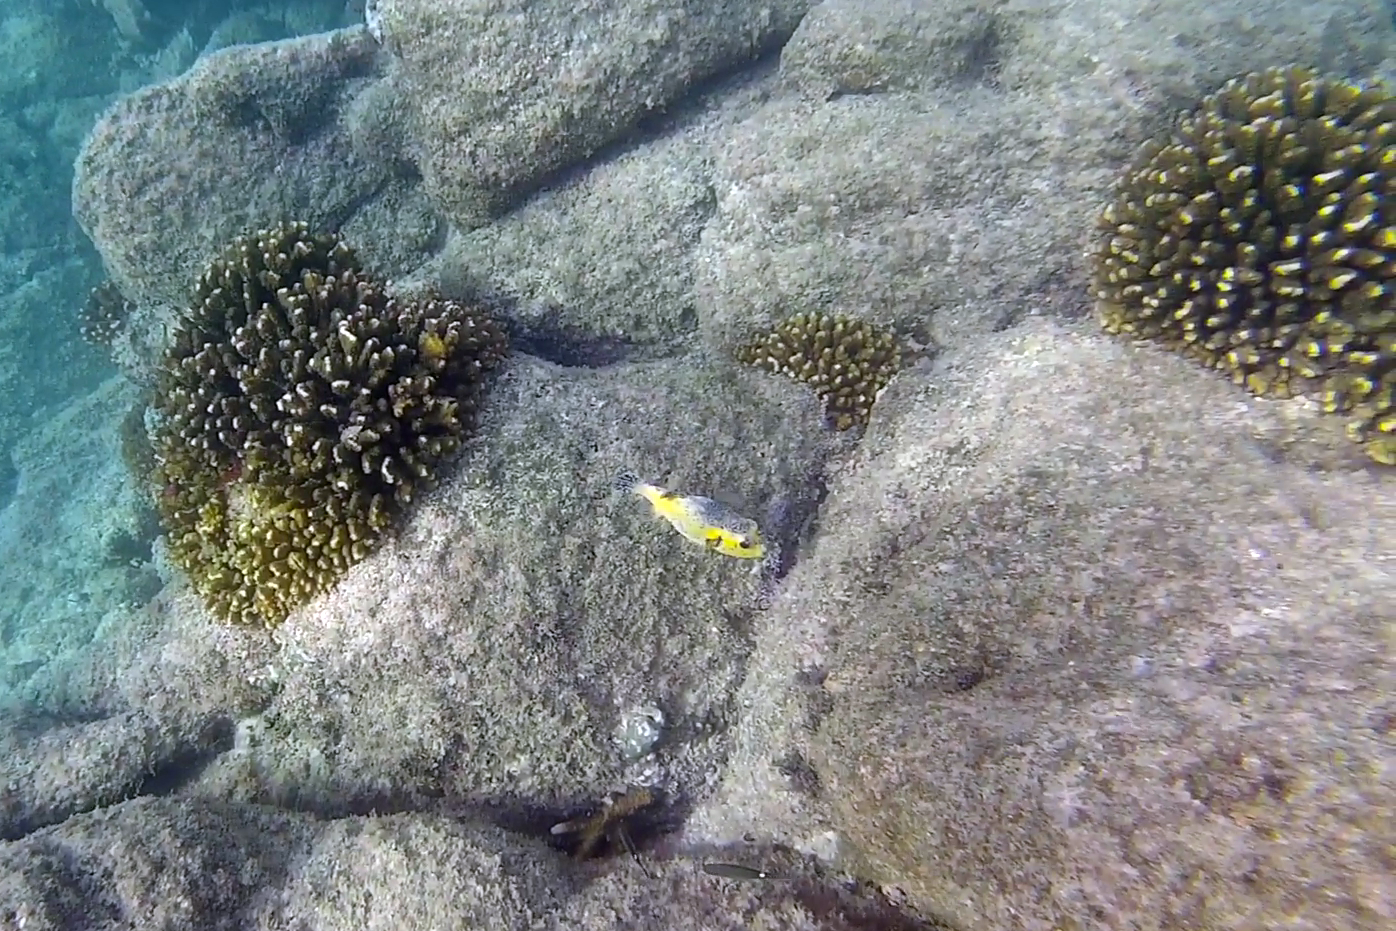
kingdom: Animalia
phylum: Chordata
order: Tetraodontiformes
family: Tetraodontidae
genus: Arothron
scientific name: Arothron meleagris
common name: Guinea-fowl pufferfish
